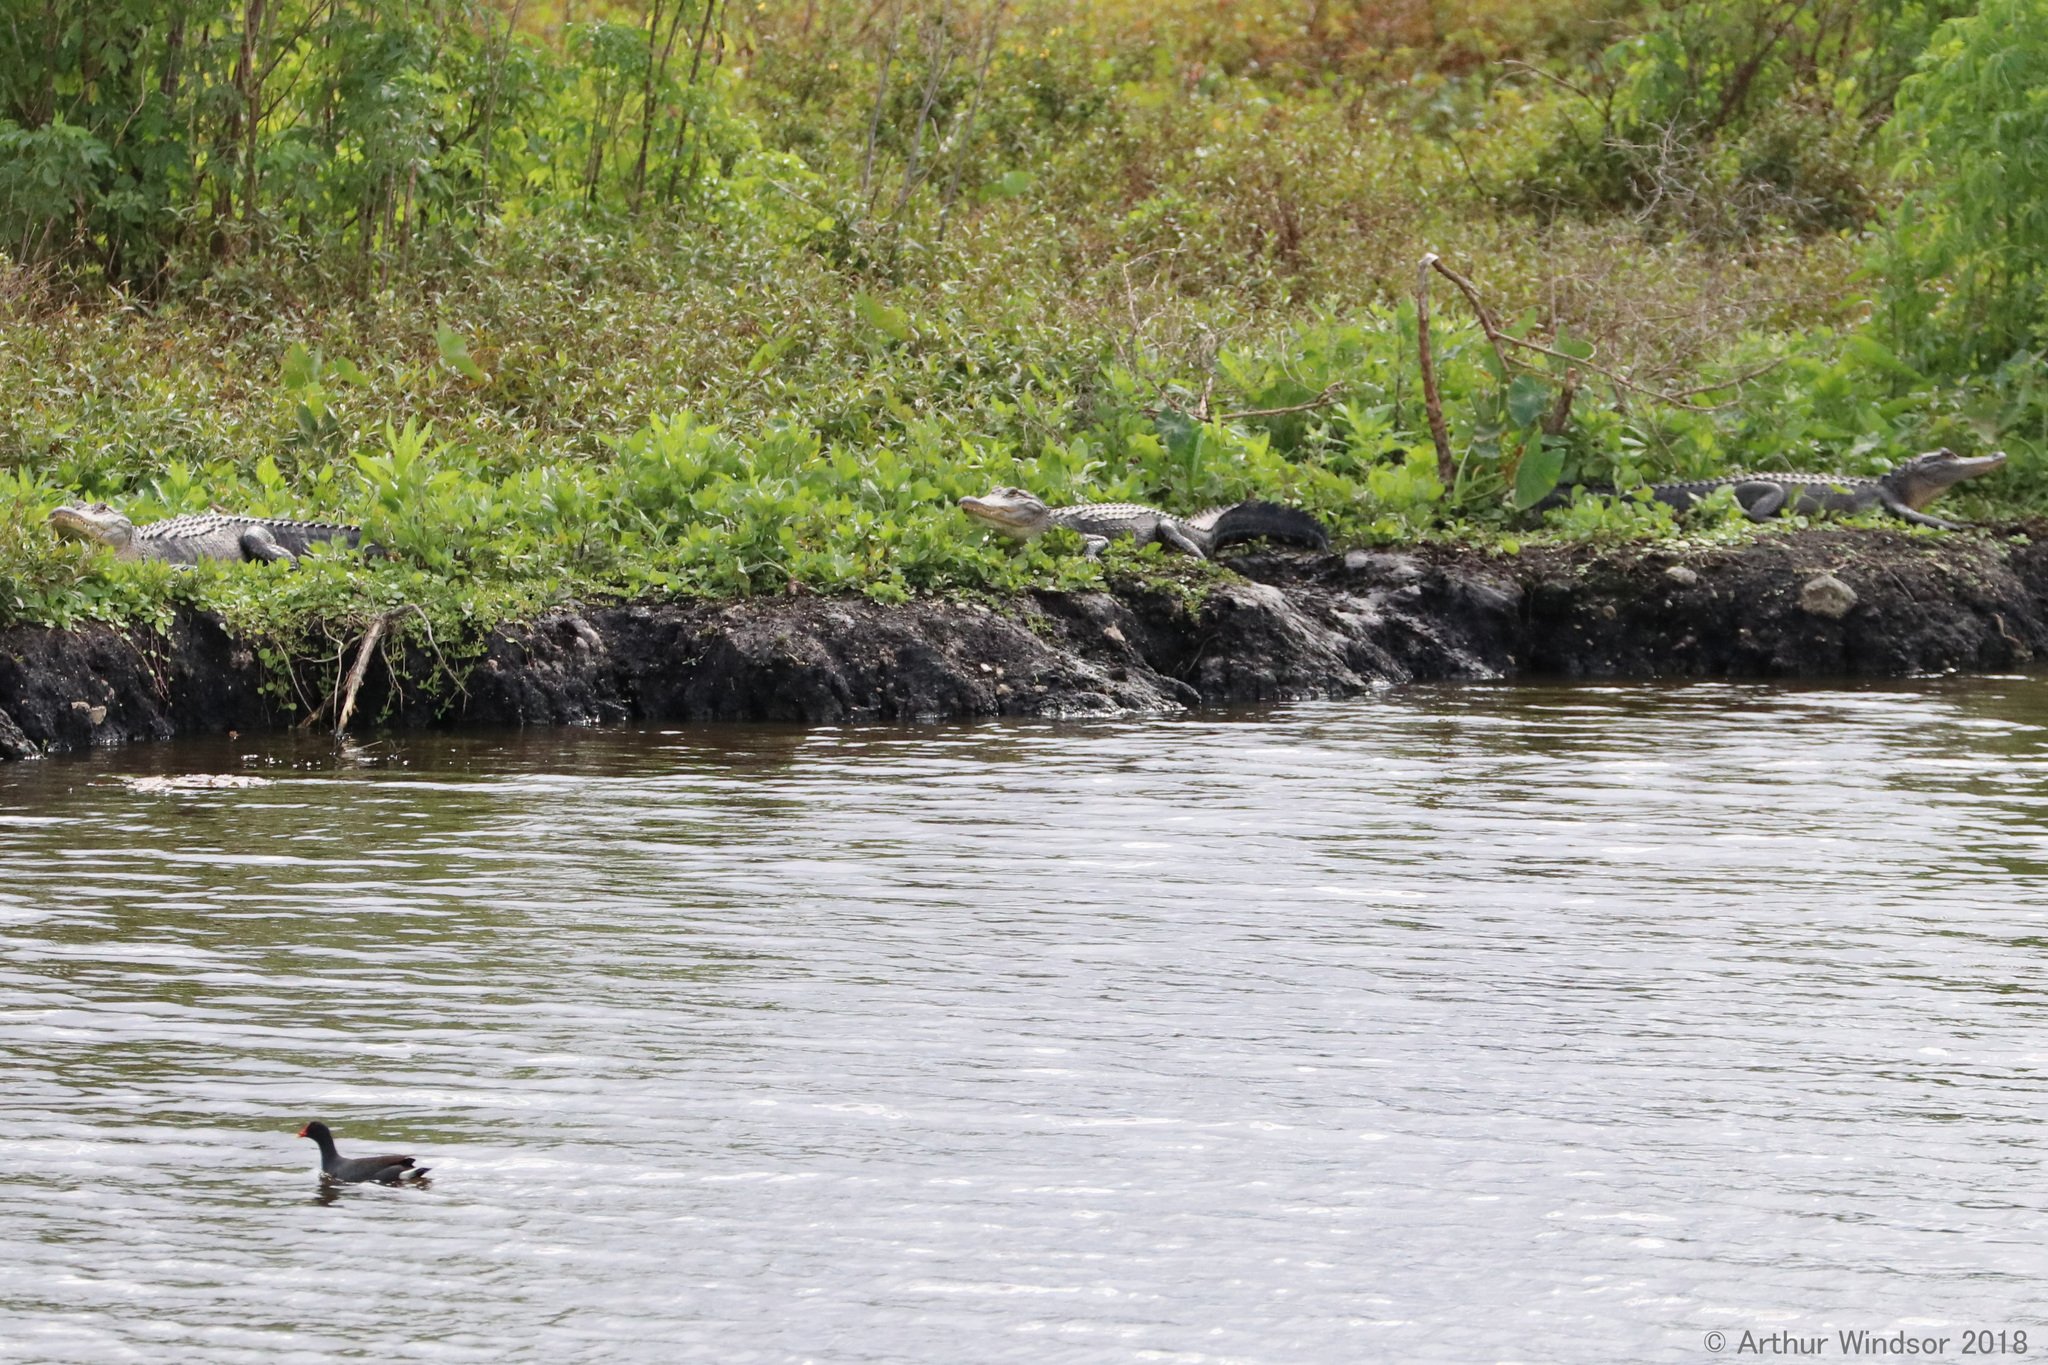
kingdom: Animalia
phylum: Chordata
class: Crocodylia
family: Alligatoridae
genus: Alligator
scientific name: Alligator mississippiensis
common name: American alligator
